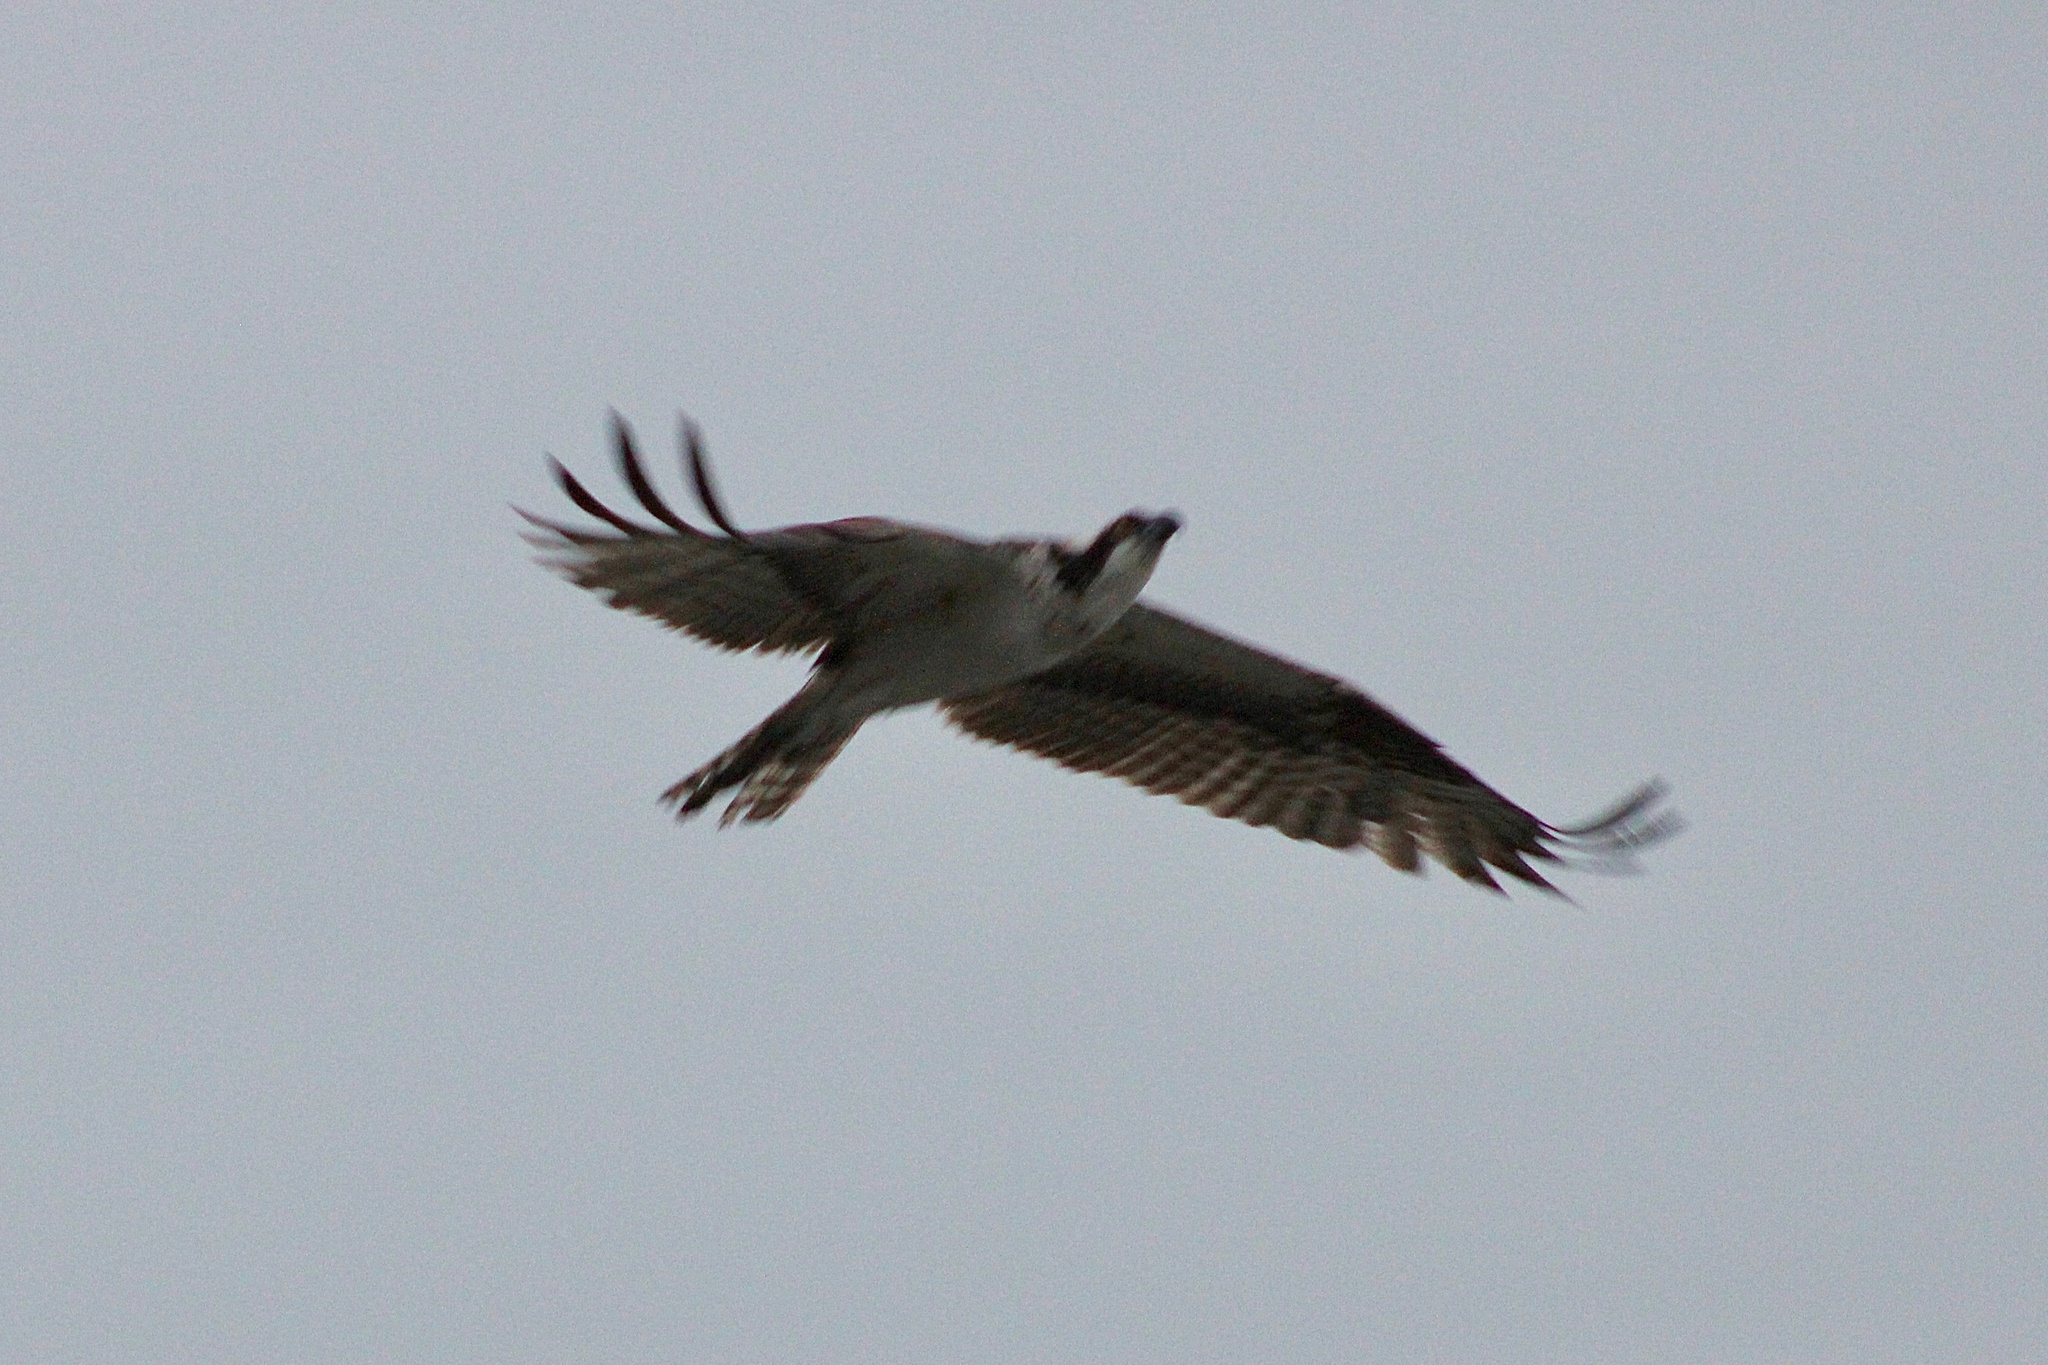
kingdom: Animalia
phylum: Chordata
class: Aves
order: Accipitriformes
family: Pandionidae
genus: Pandion
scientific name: Pandion haliaetus
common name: Osprey
